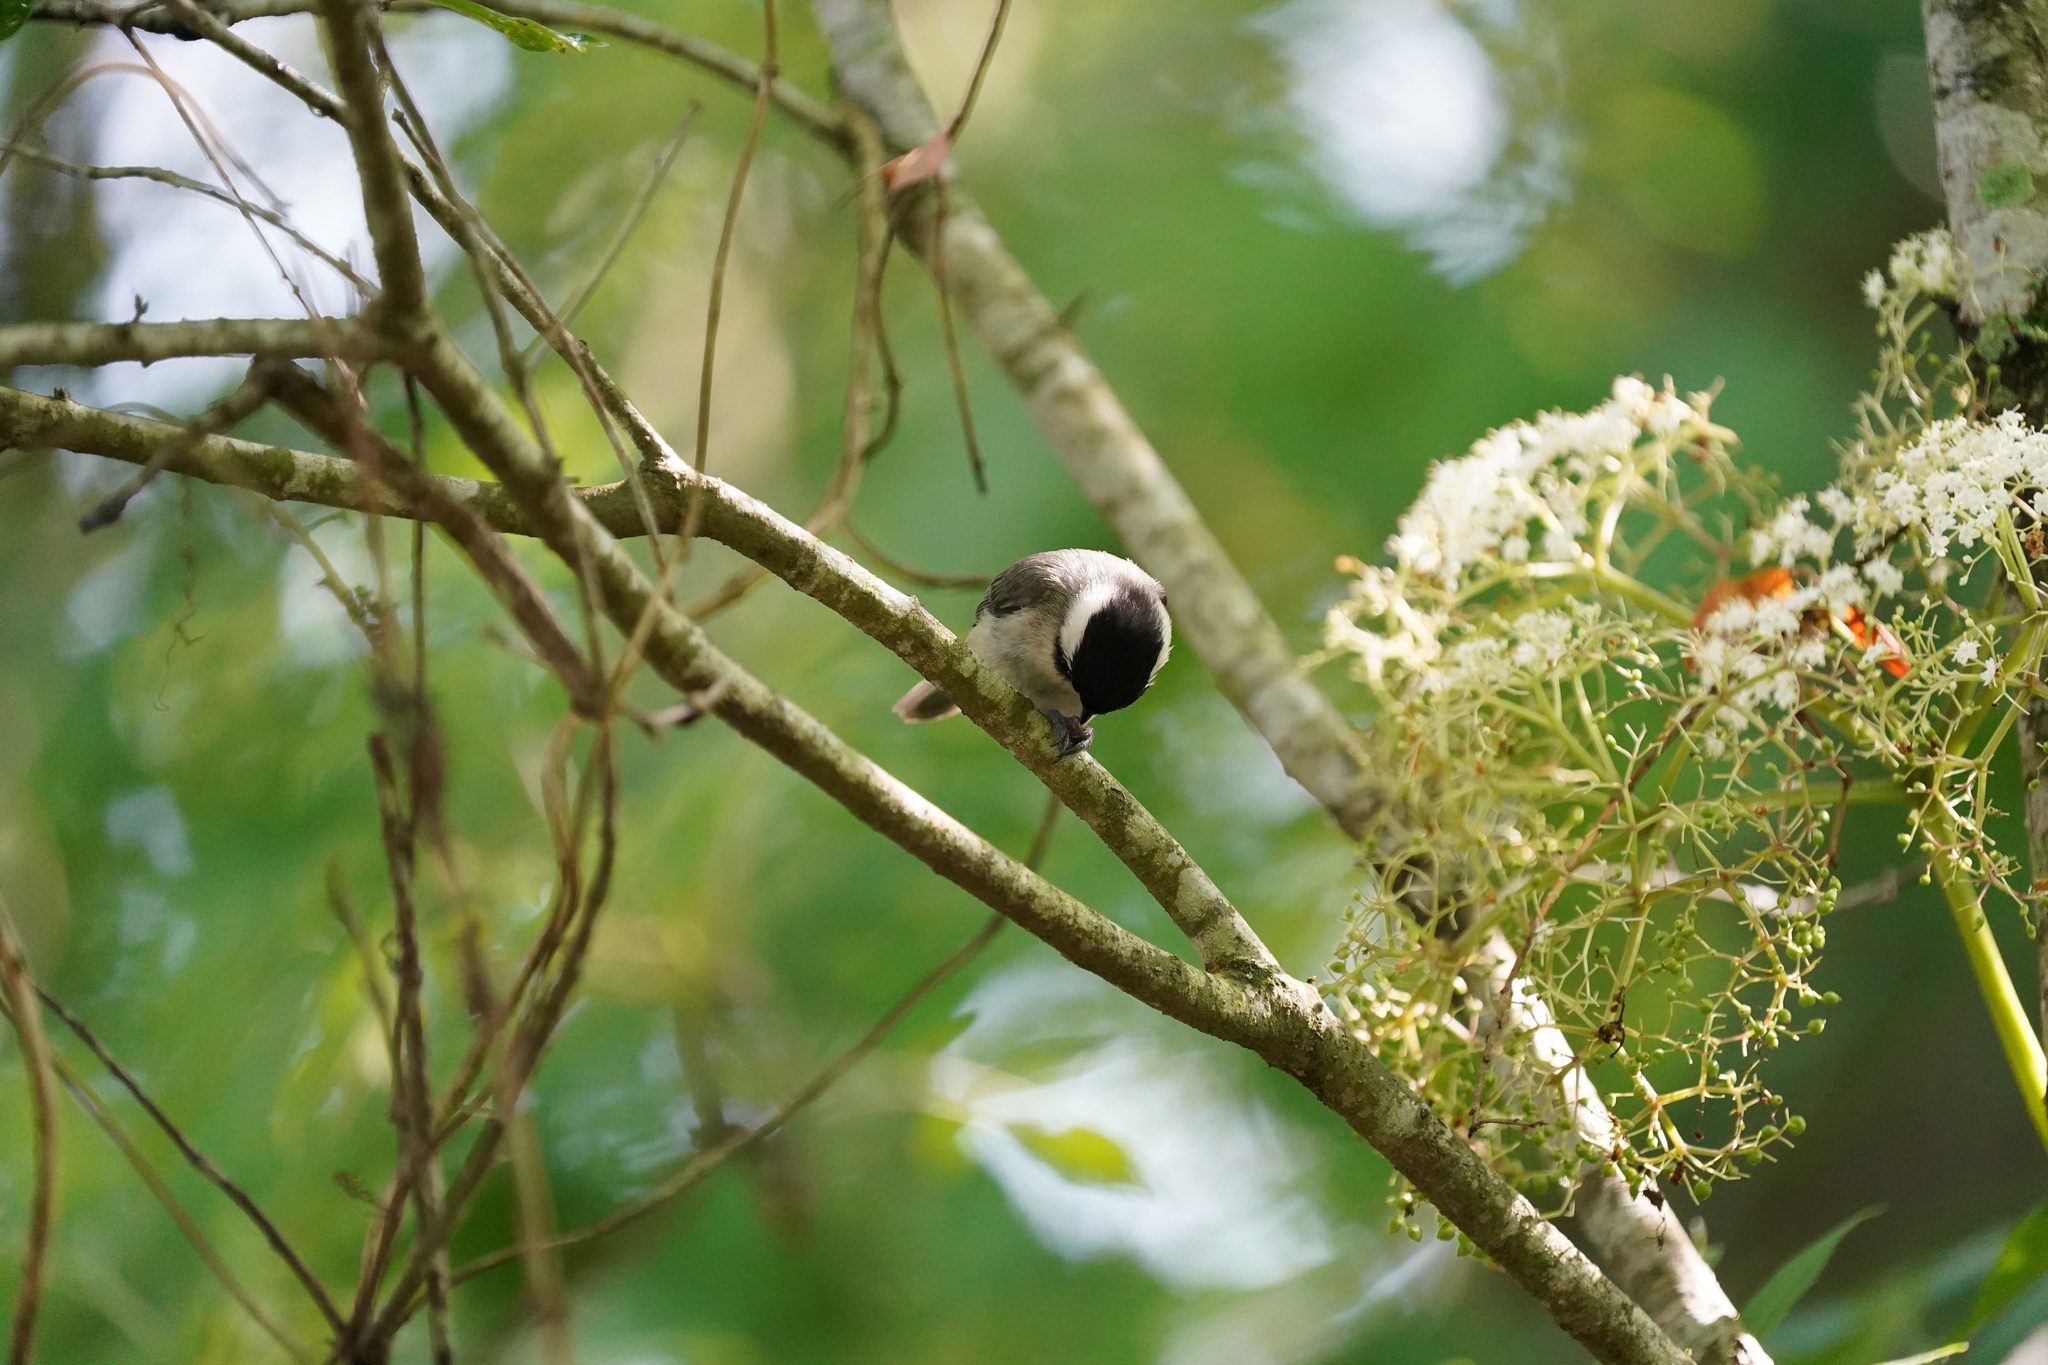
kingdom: Animalia
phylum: Chordata
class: Aves
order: Passeriformes
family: Paridae
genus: Poecile
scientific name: Poecile carolinensis
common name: Carolina chickadee
